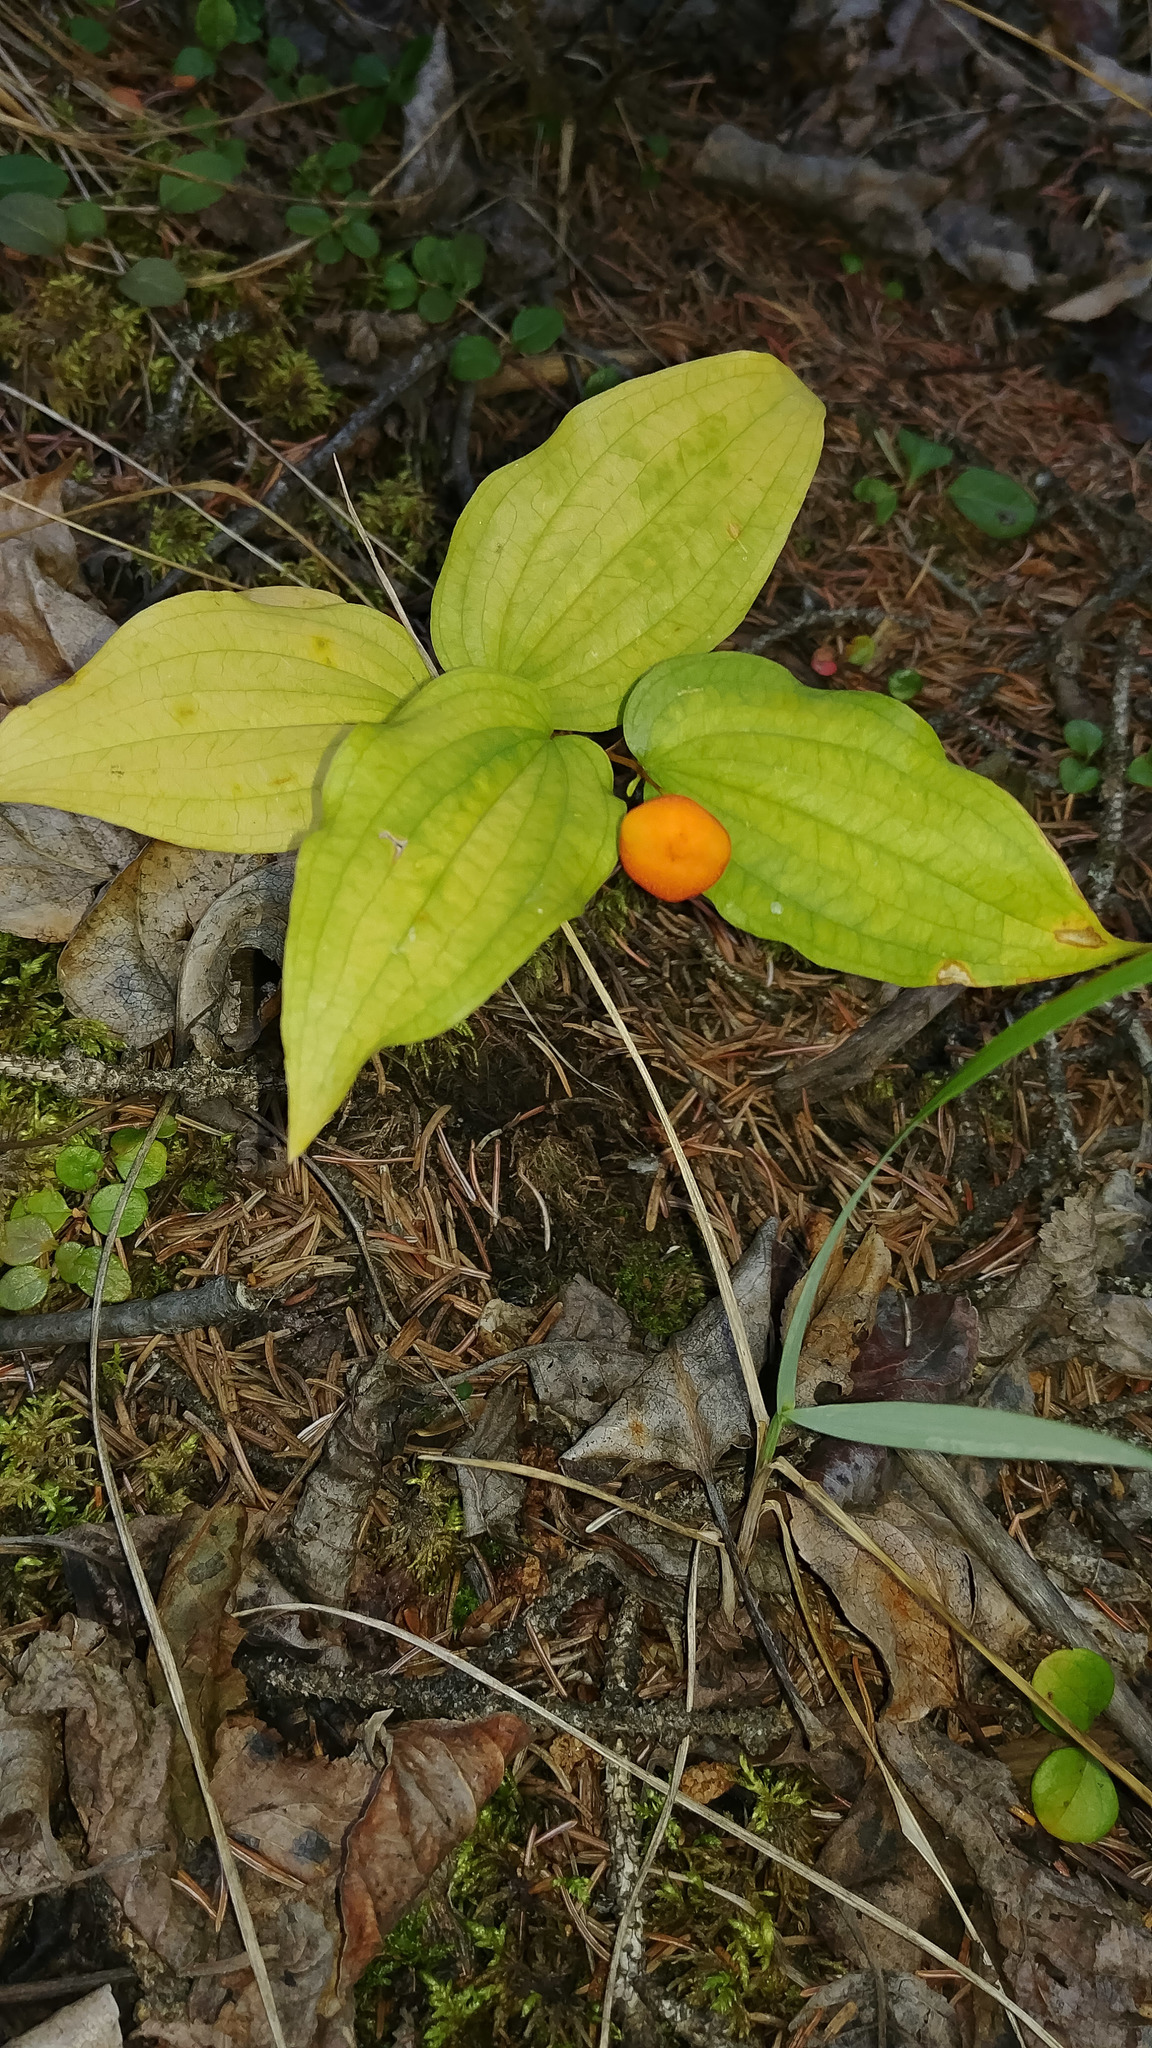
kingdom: Plantae
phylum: Tracheophyta
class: Liliopsida
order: Liliales
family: Liliaceae
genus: Prosartes
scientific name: Prosartes trachycarpa
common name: Rough-fruit fairy-bells
